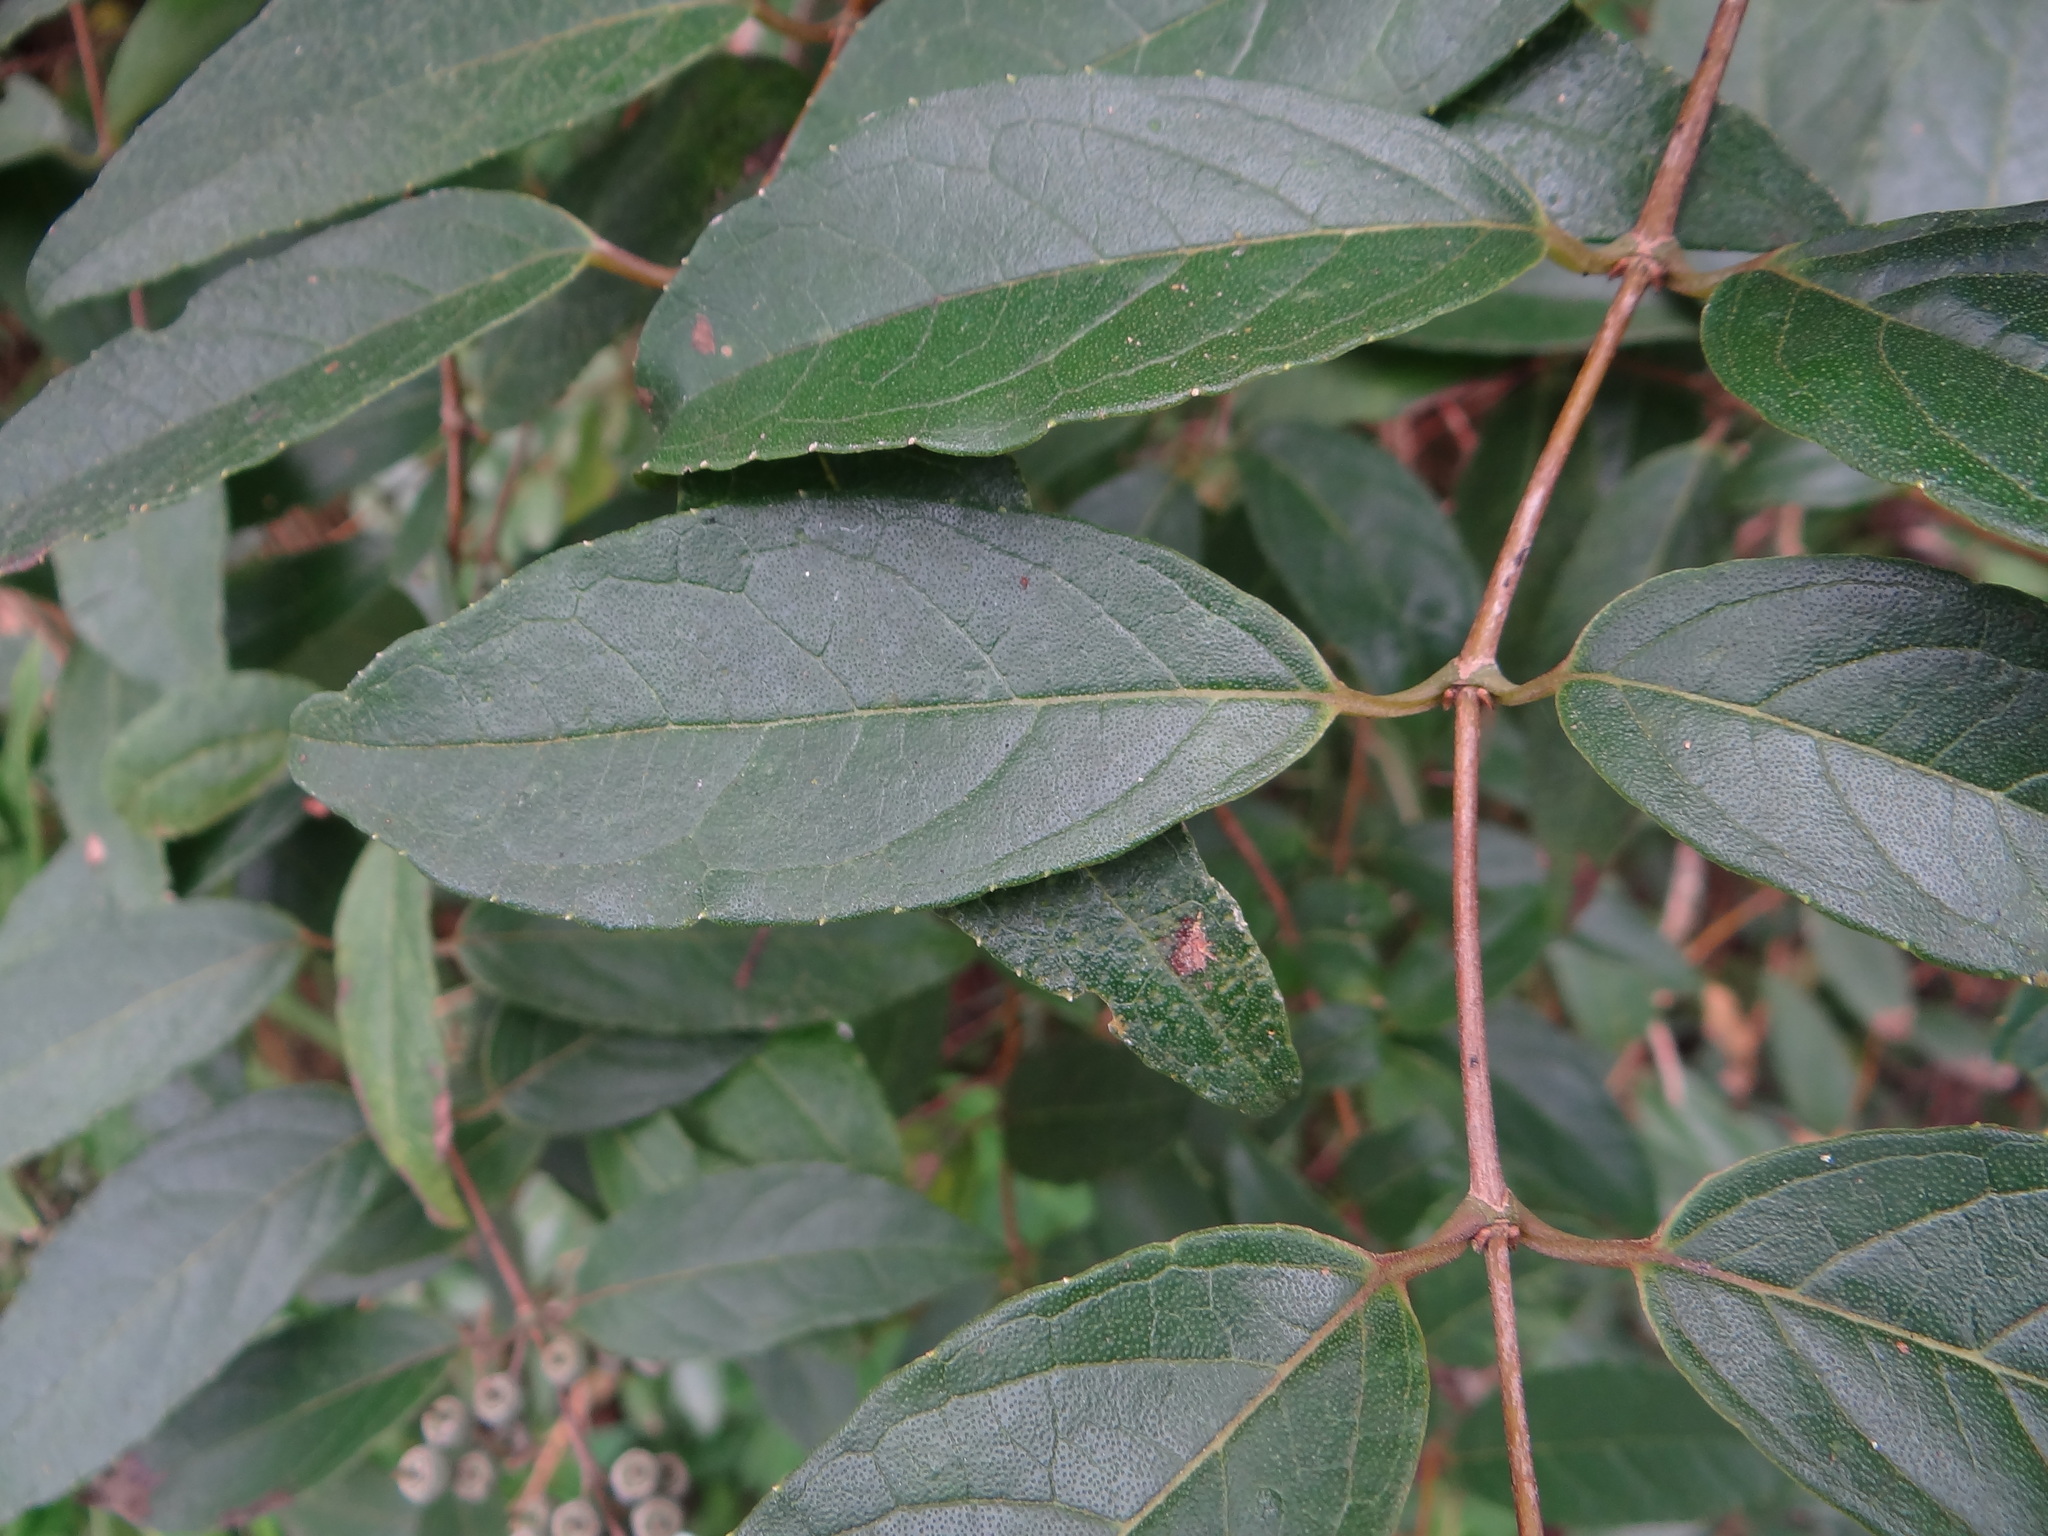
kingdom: Plantae
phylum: Tracheophyta
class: Magnoliopsida
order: Cornales
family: Hydrangeaceae
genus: Deutzia
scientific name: Deutzia pulchra
